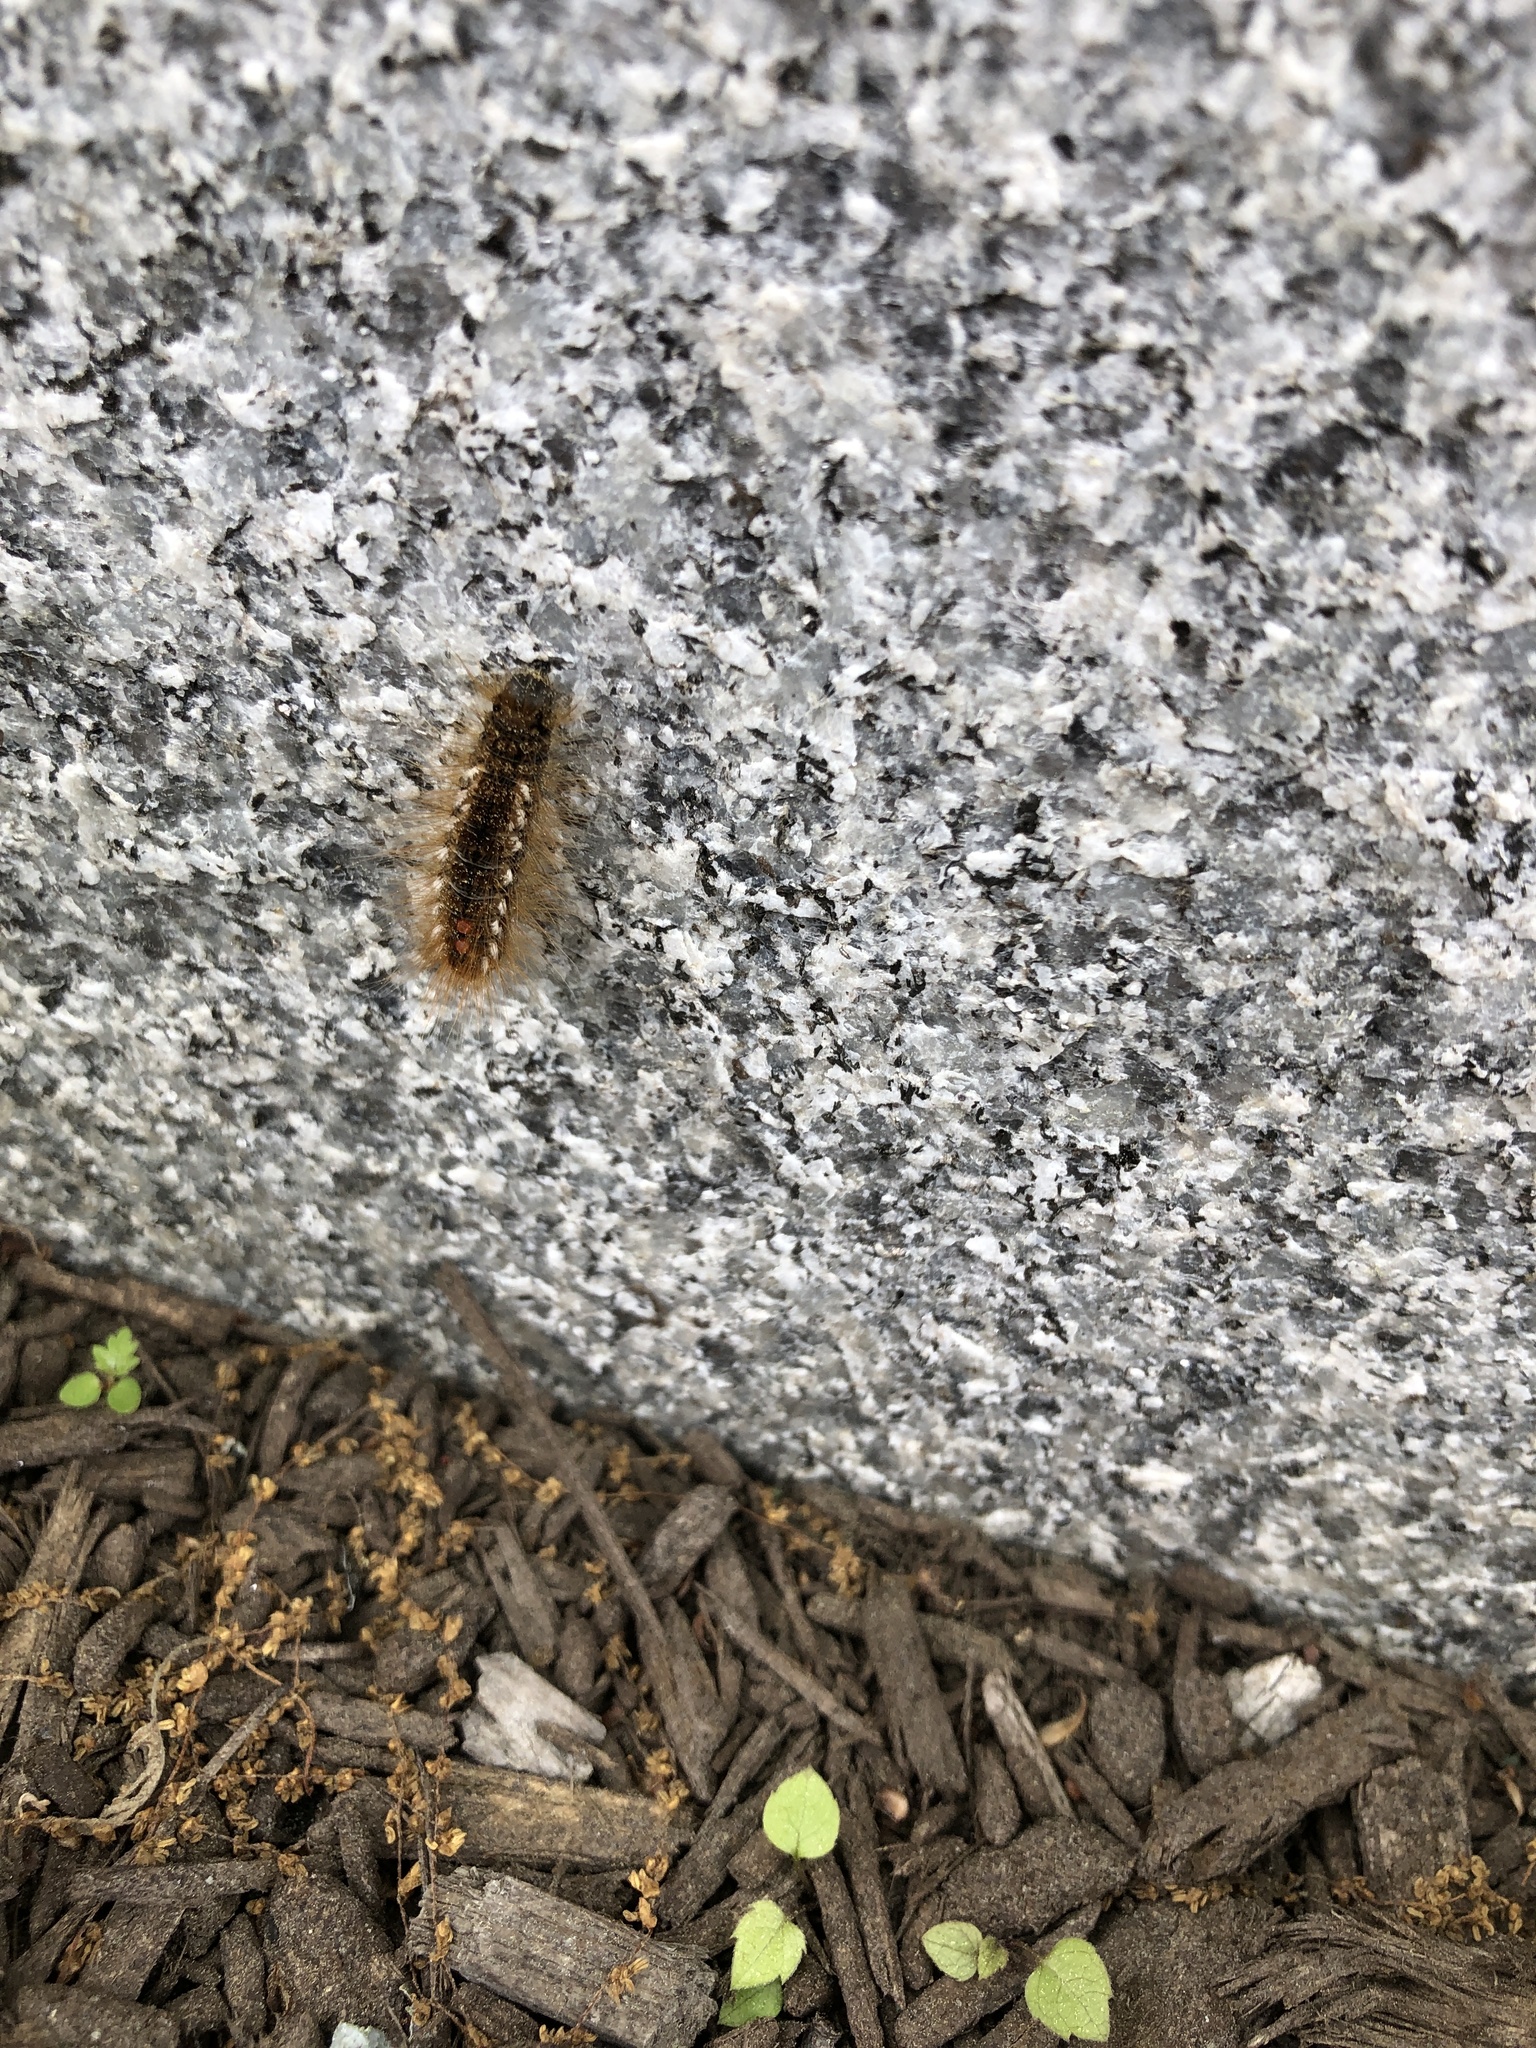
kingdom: Animalia
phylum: Arthropoda
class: Insecta
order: Lepidoptera
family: Erebidae
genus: Euproctis
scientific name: Euproctis chrysorrhoea
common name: Brown-tail
